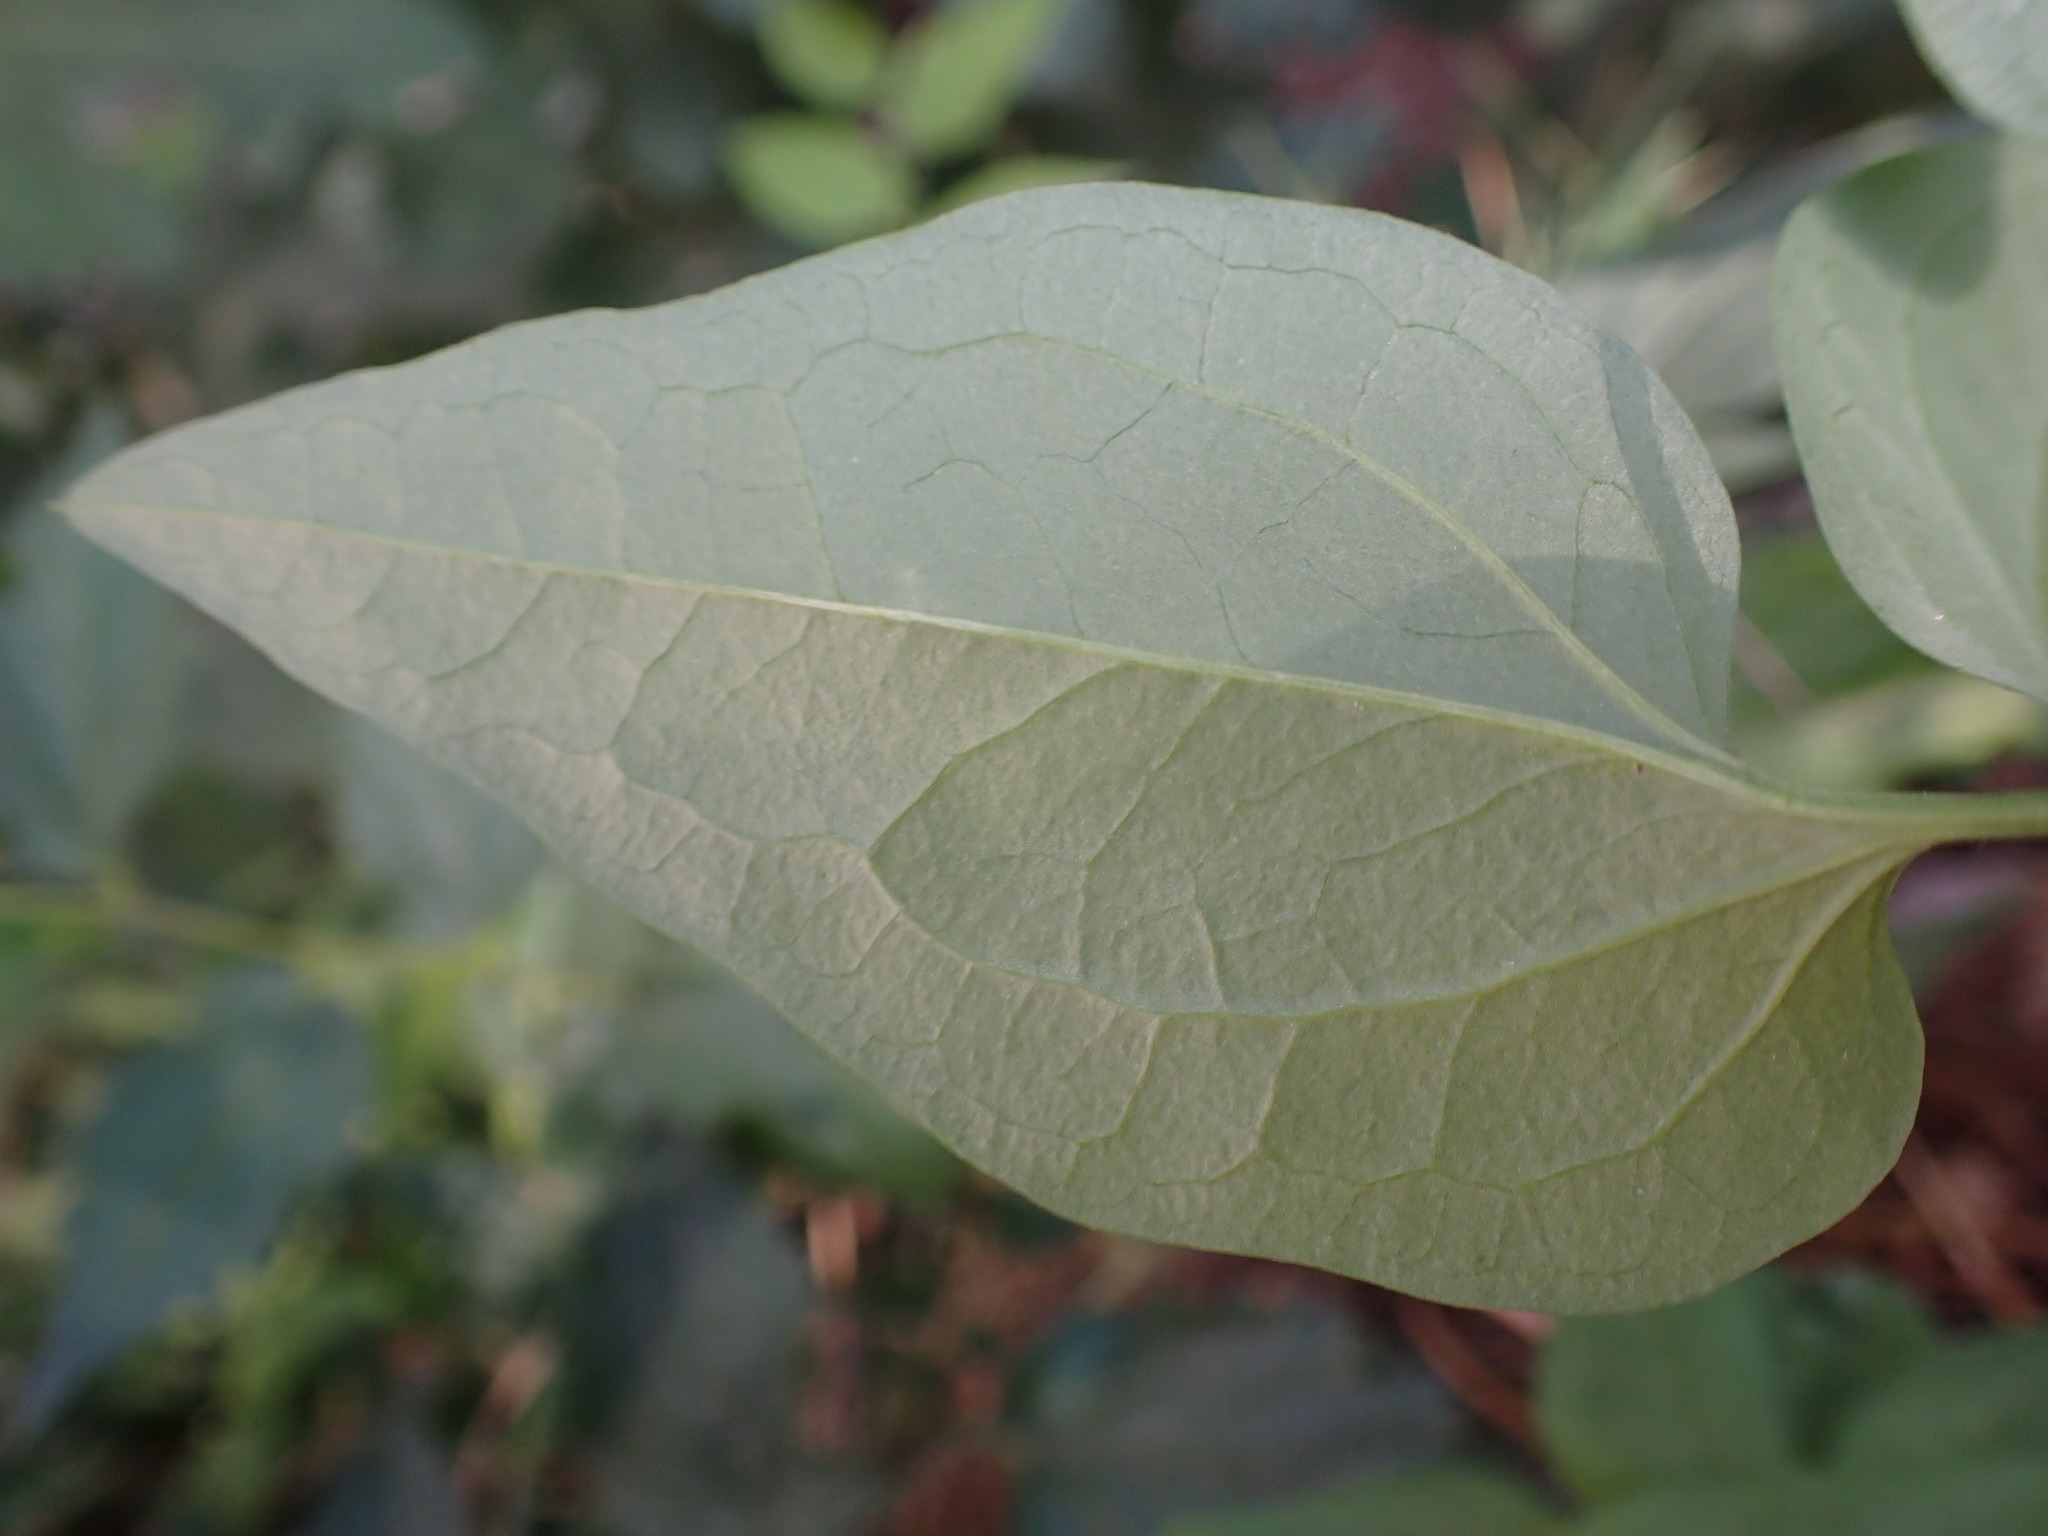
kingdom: Plantae
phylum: Tracheophyta
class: Magnoliopsida
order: Ranunculales
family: Ranunculaceae
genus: Clematis
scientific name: Clematis flammula
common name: Virgin's-bower
